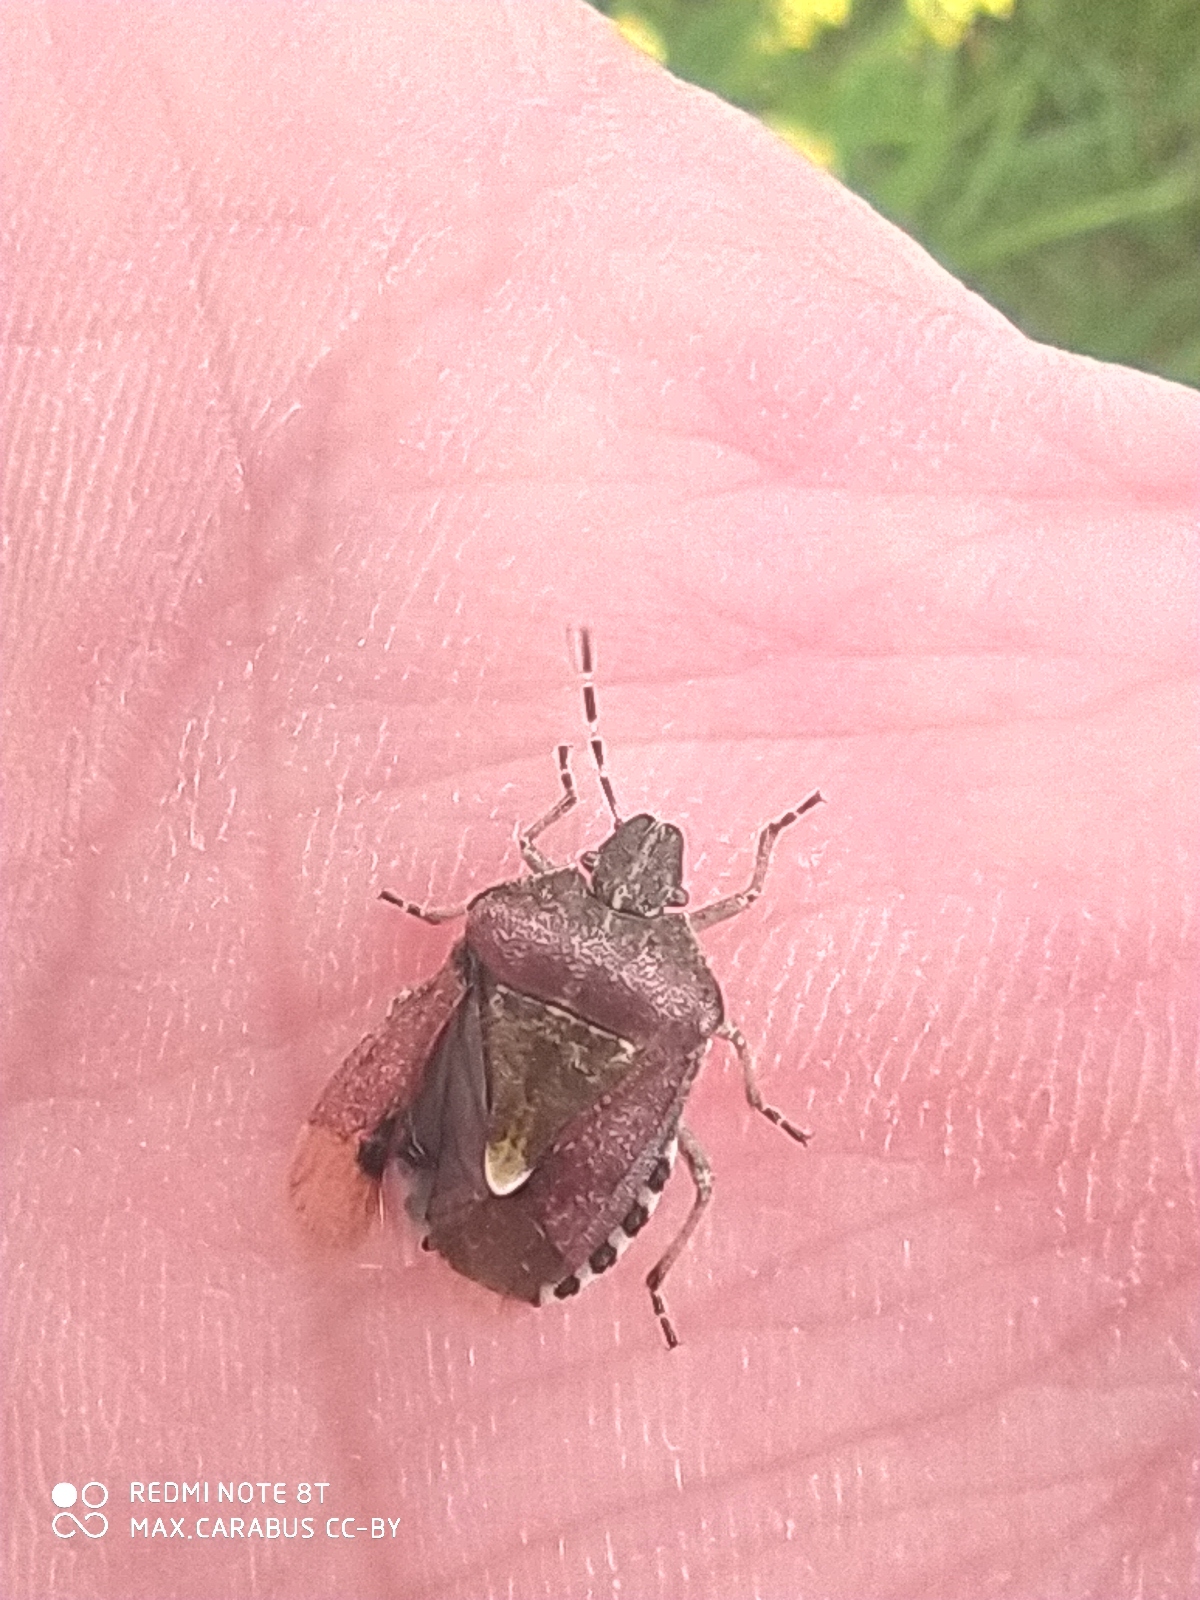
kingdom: Animalia
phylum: Arthropoda
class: Insecta
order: Hemiptera
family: Pentatomidae
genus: Dolycoris
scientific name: Dolycoris baccarum
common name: Sloe bug
